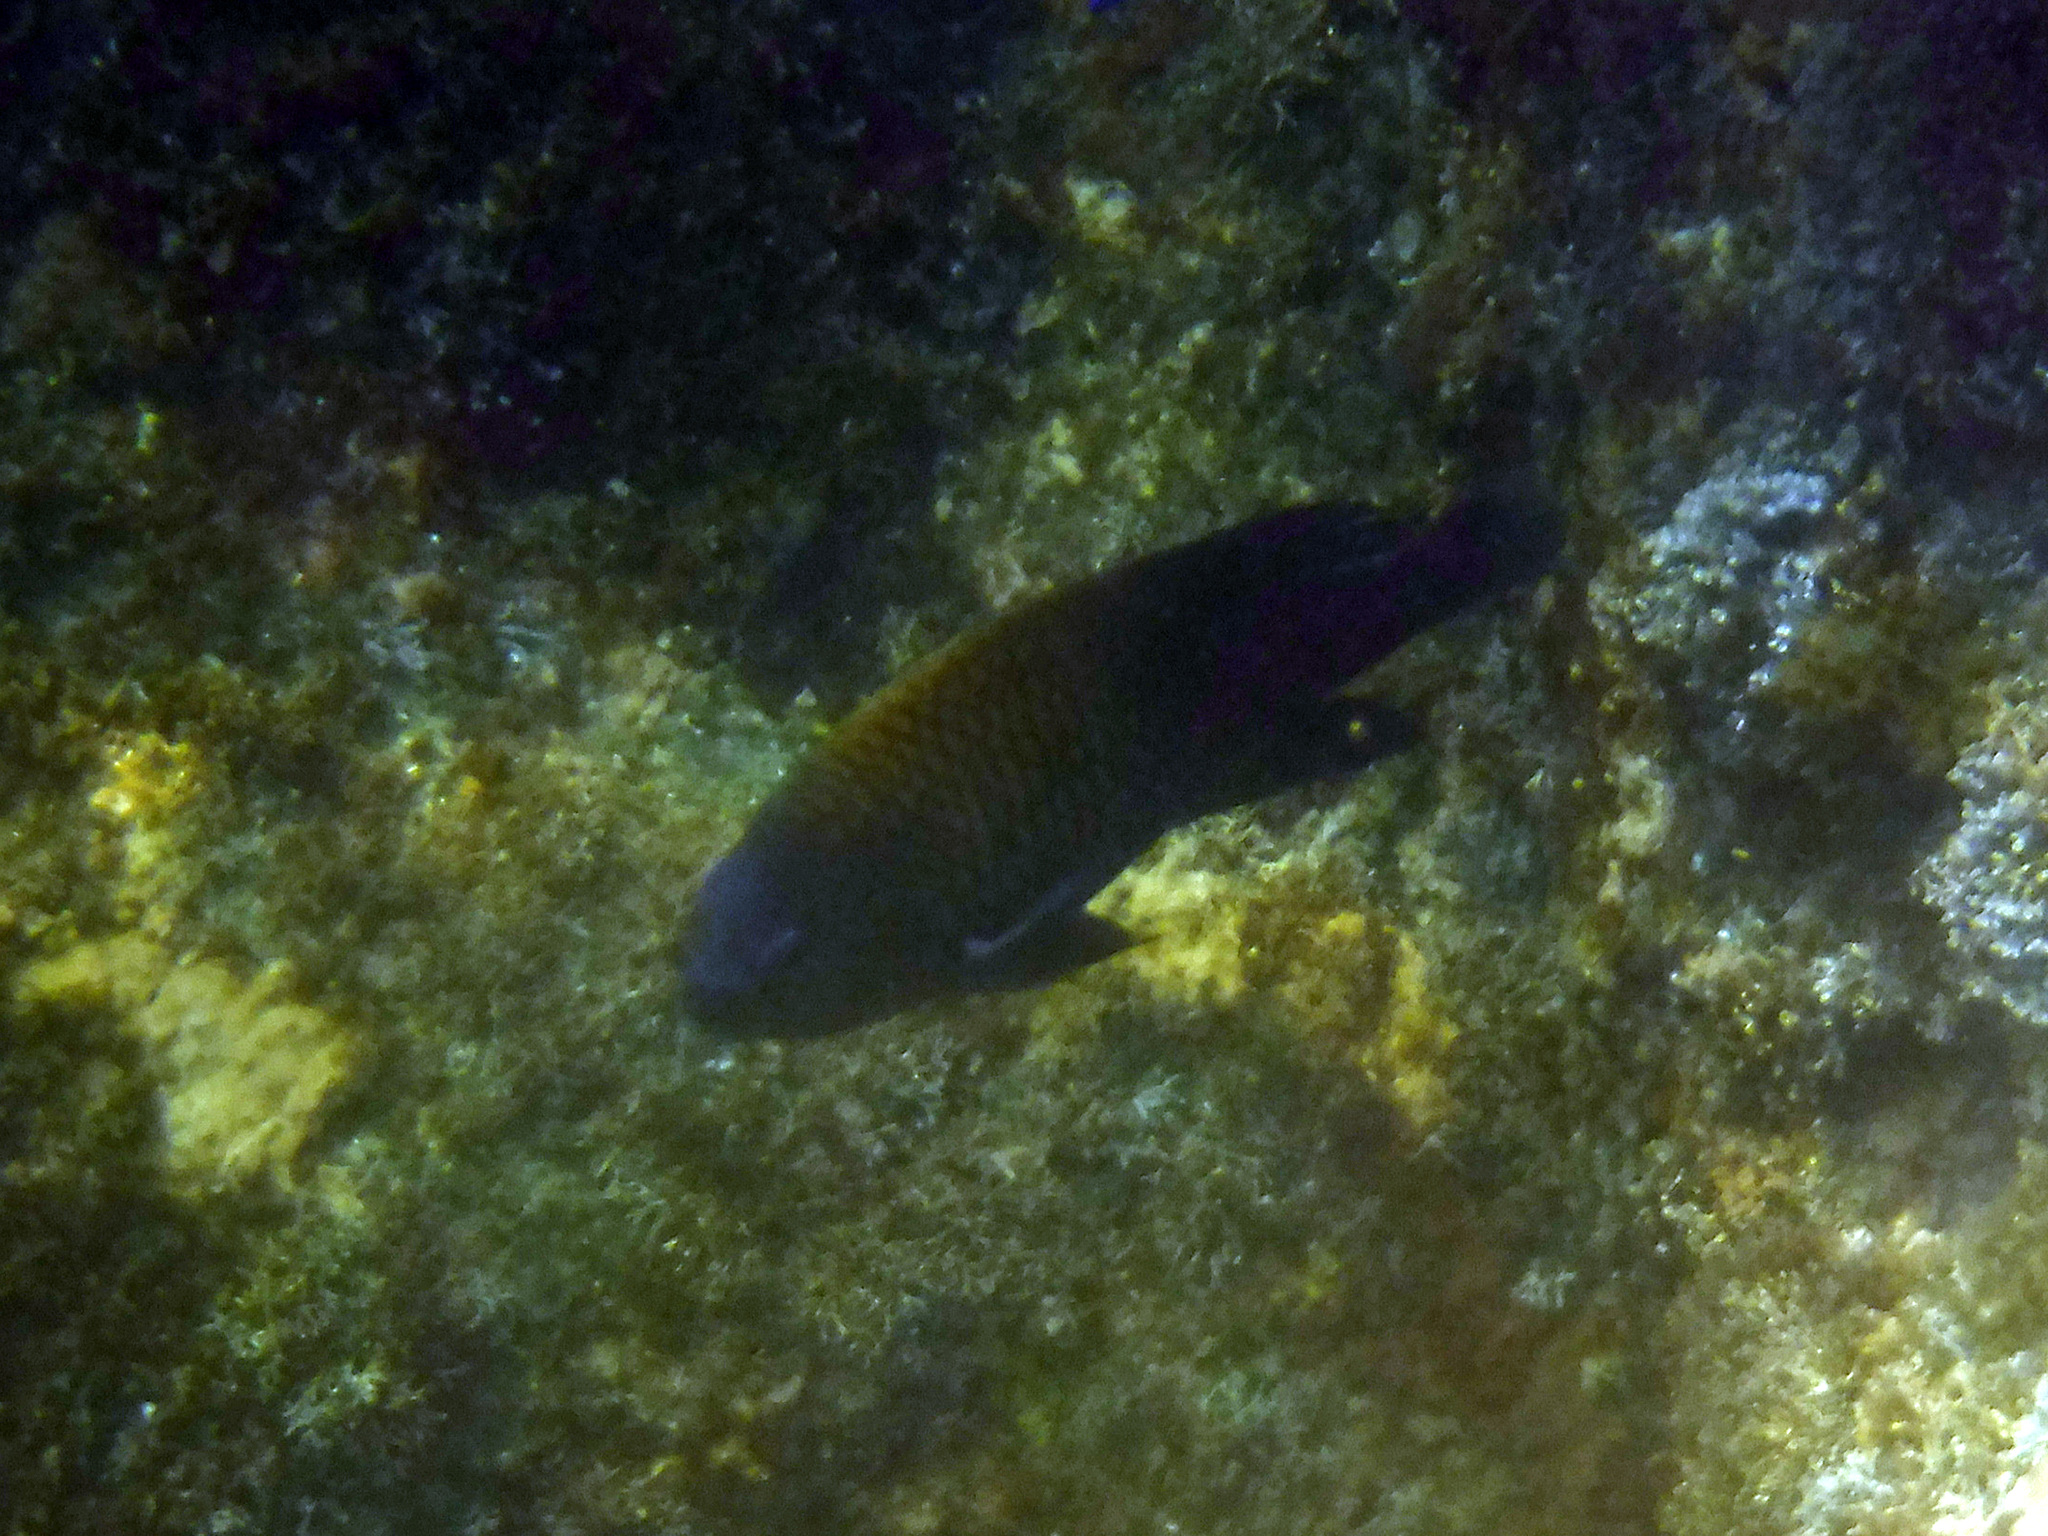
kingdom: Animalia
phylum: Chordata
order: Perciformes
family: Pomacentridae
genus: Stegastes
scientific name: Stegastes acapulcoensis
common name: Acapulco damselfish
